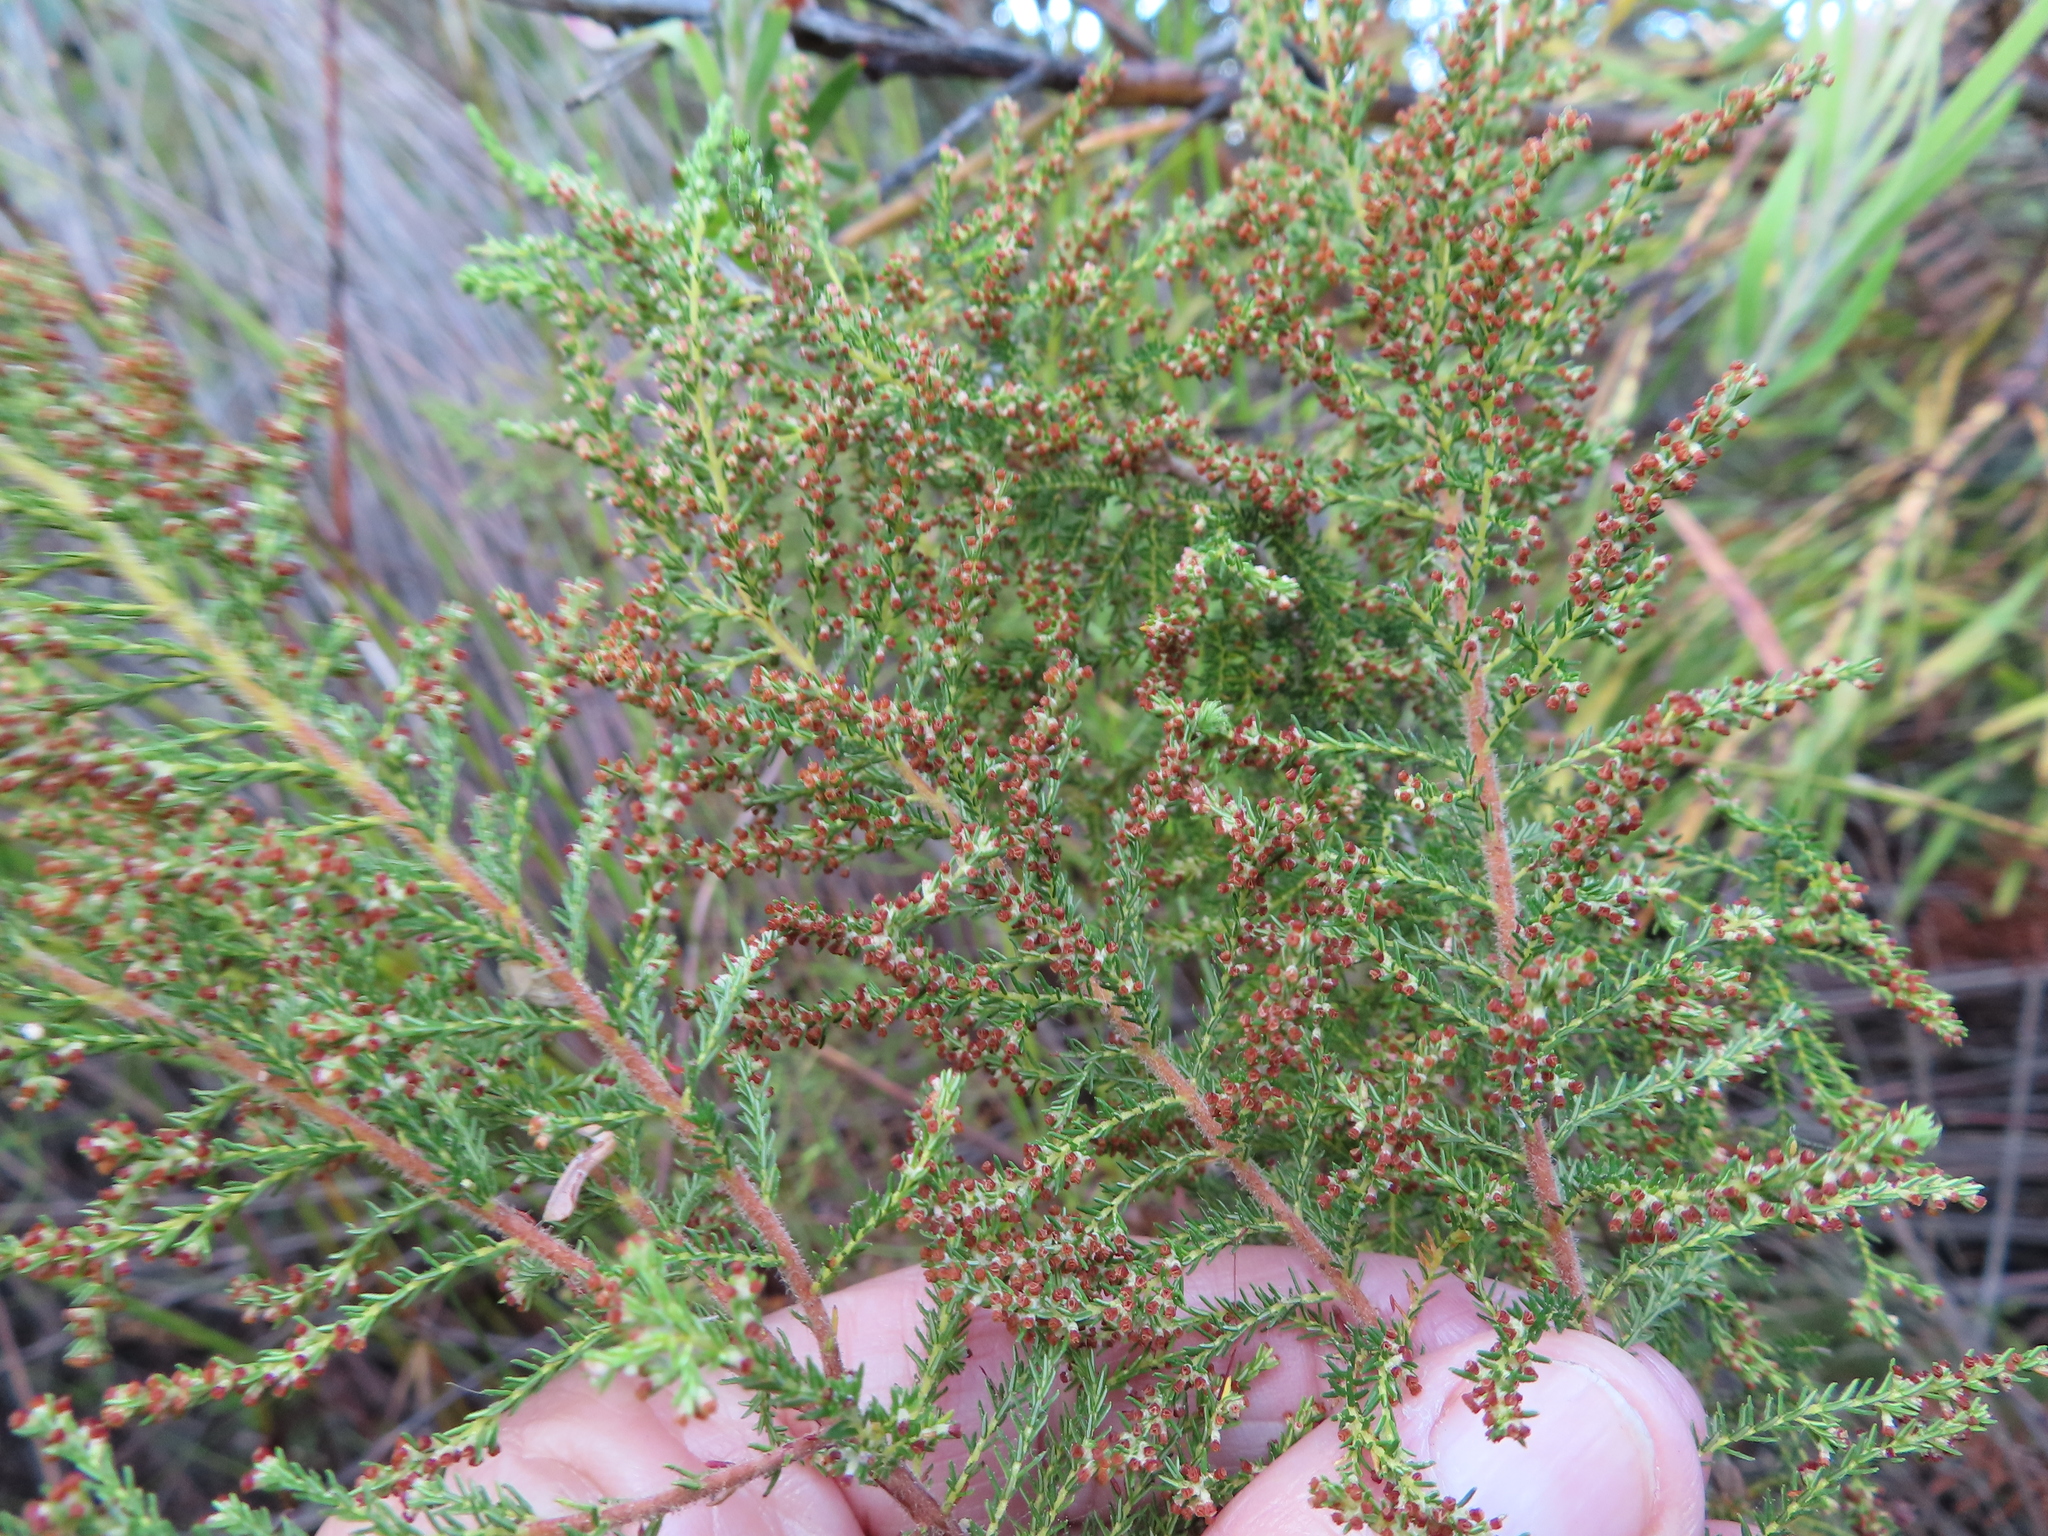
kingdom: Plantae
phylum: Tracheophyta
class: Magnoliopsida
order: Ericales
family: Ericaceae
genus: Erica
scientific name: Erica muscosa
